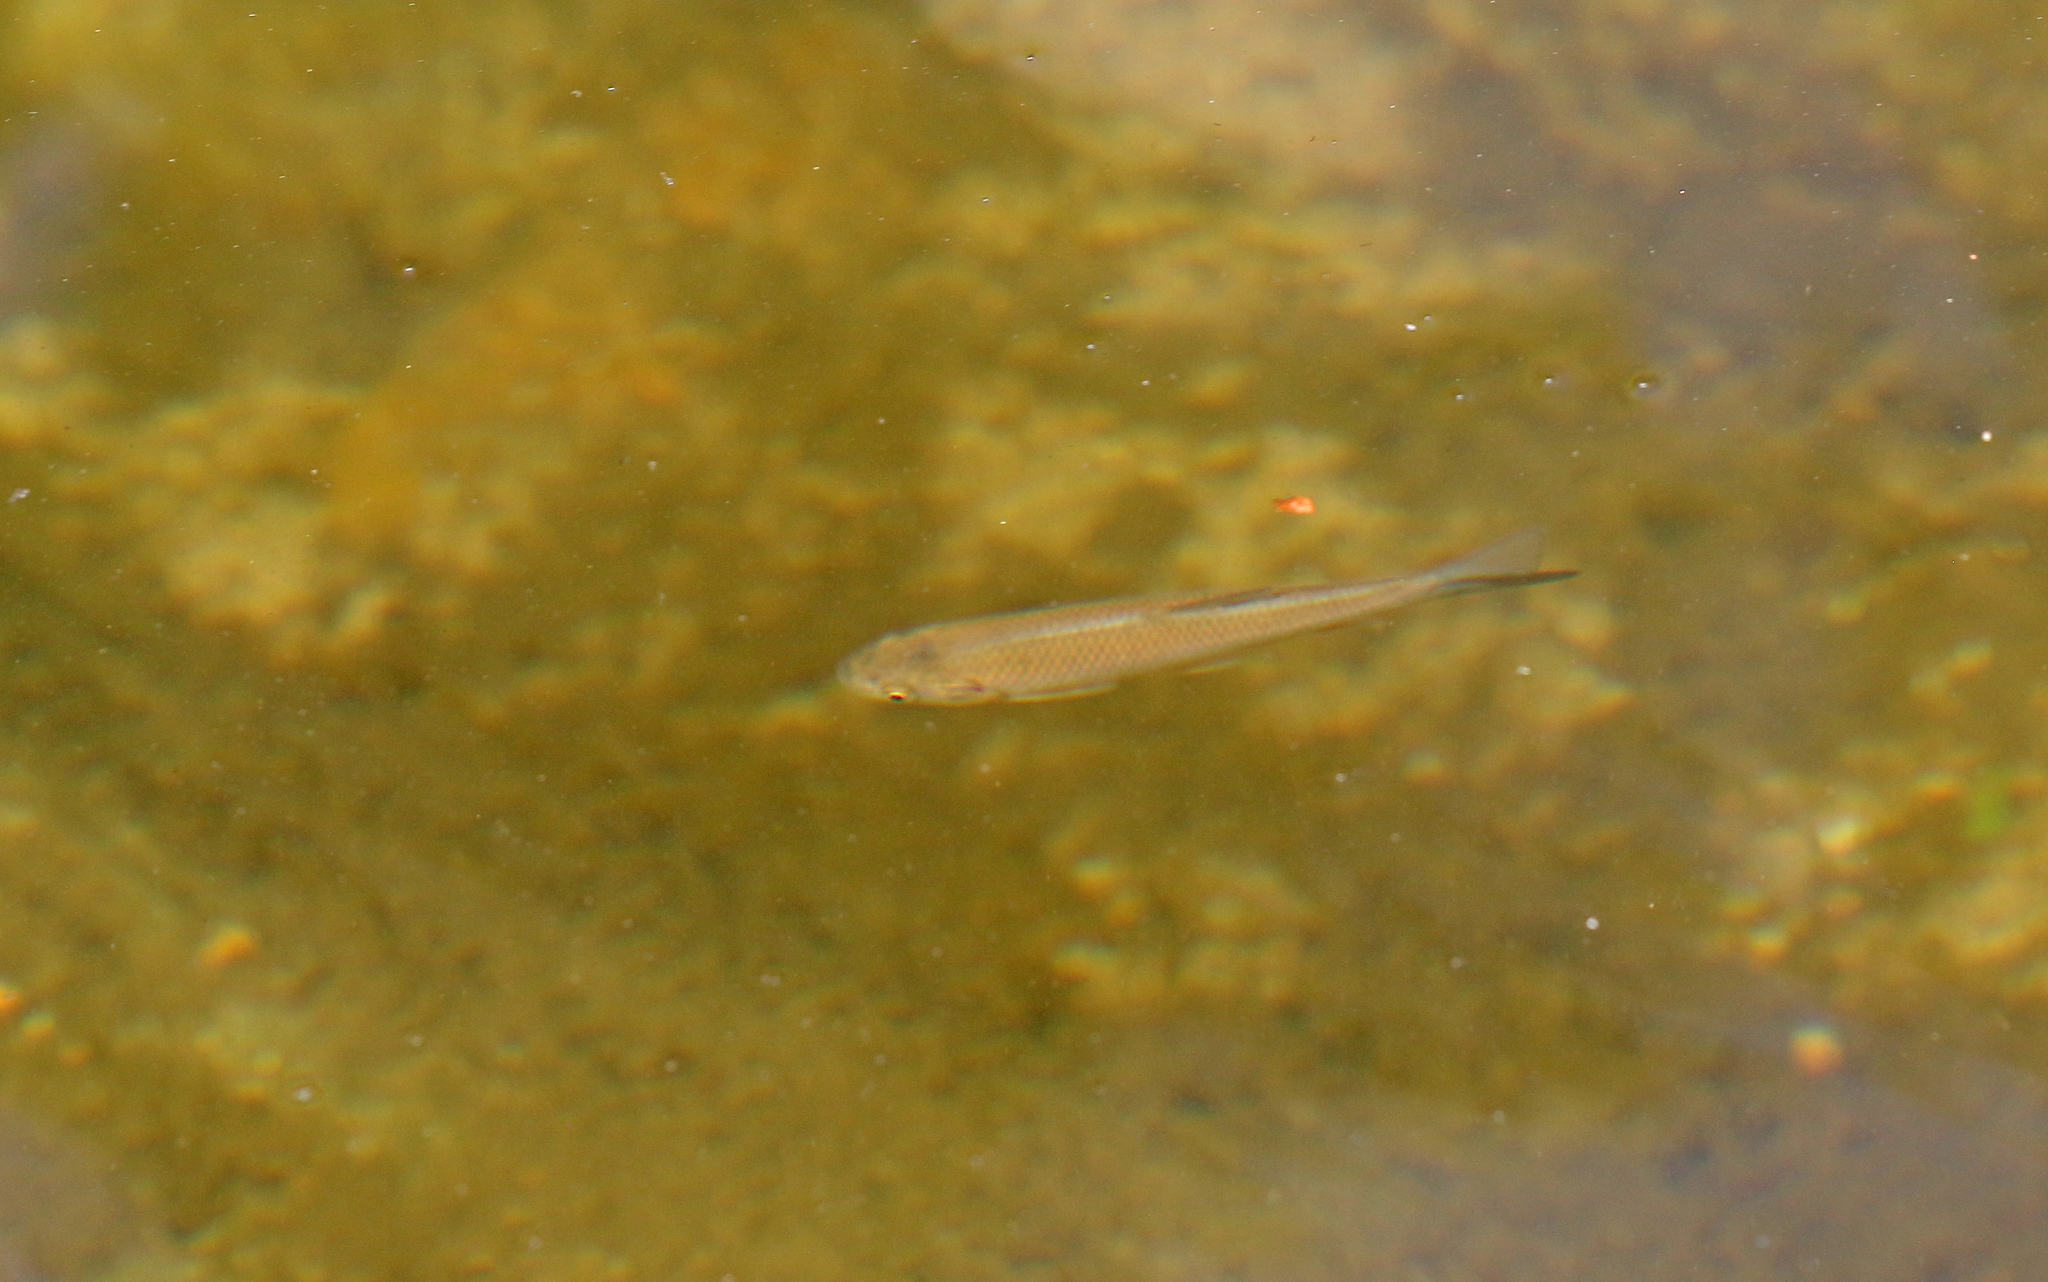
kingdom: Animalia
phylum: Chordata
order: Cypriniformes
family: Cyprinidae
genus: Squalius
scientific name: Squalius cephalus
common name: Chub
